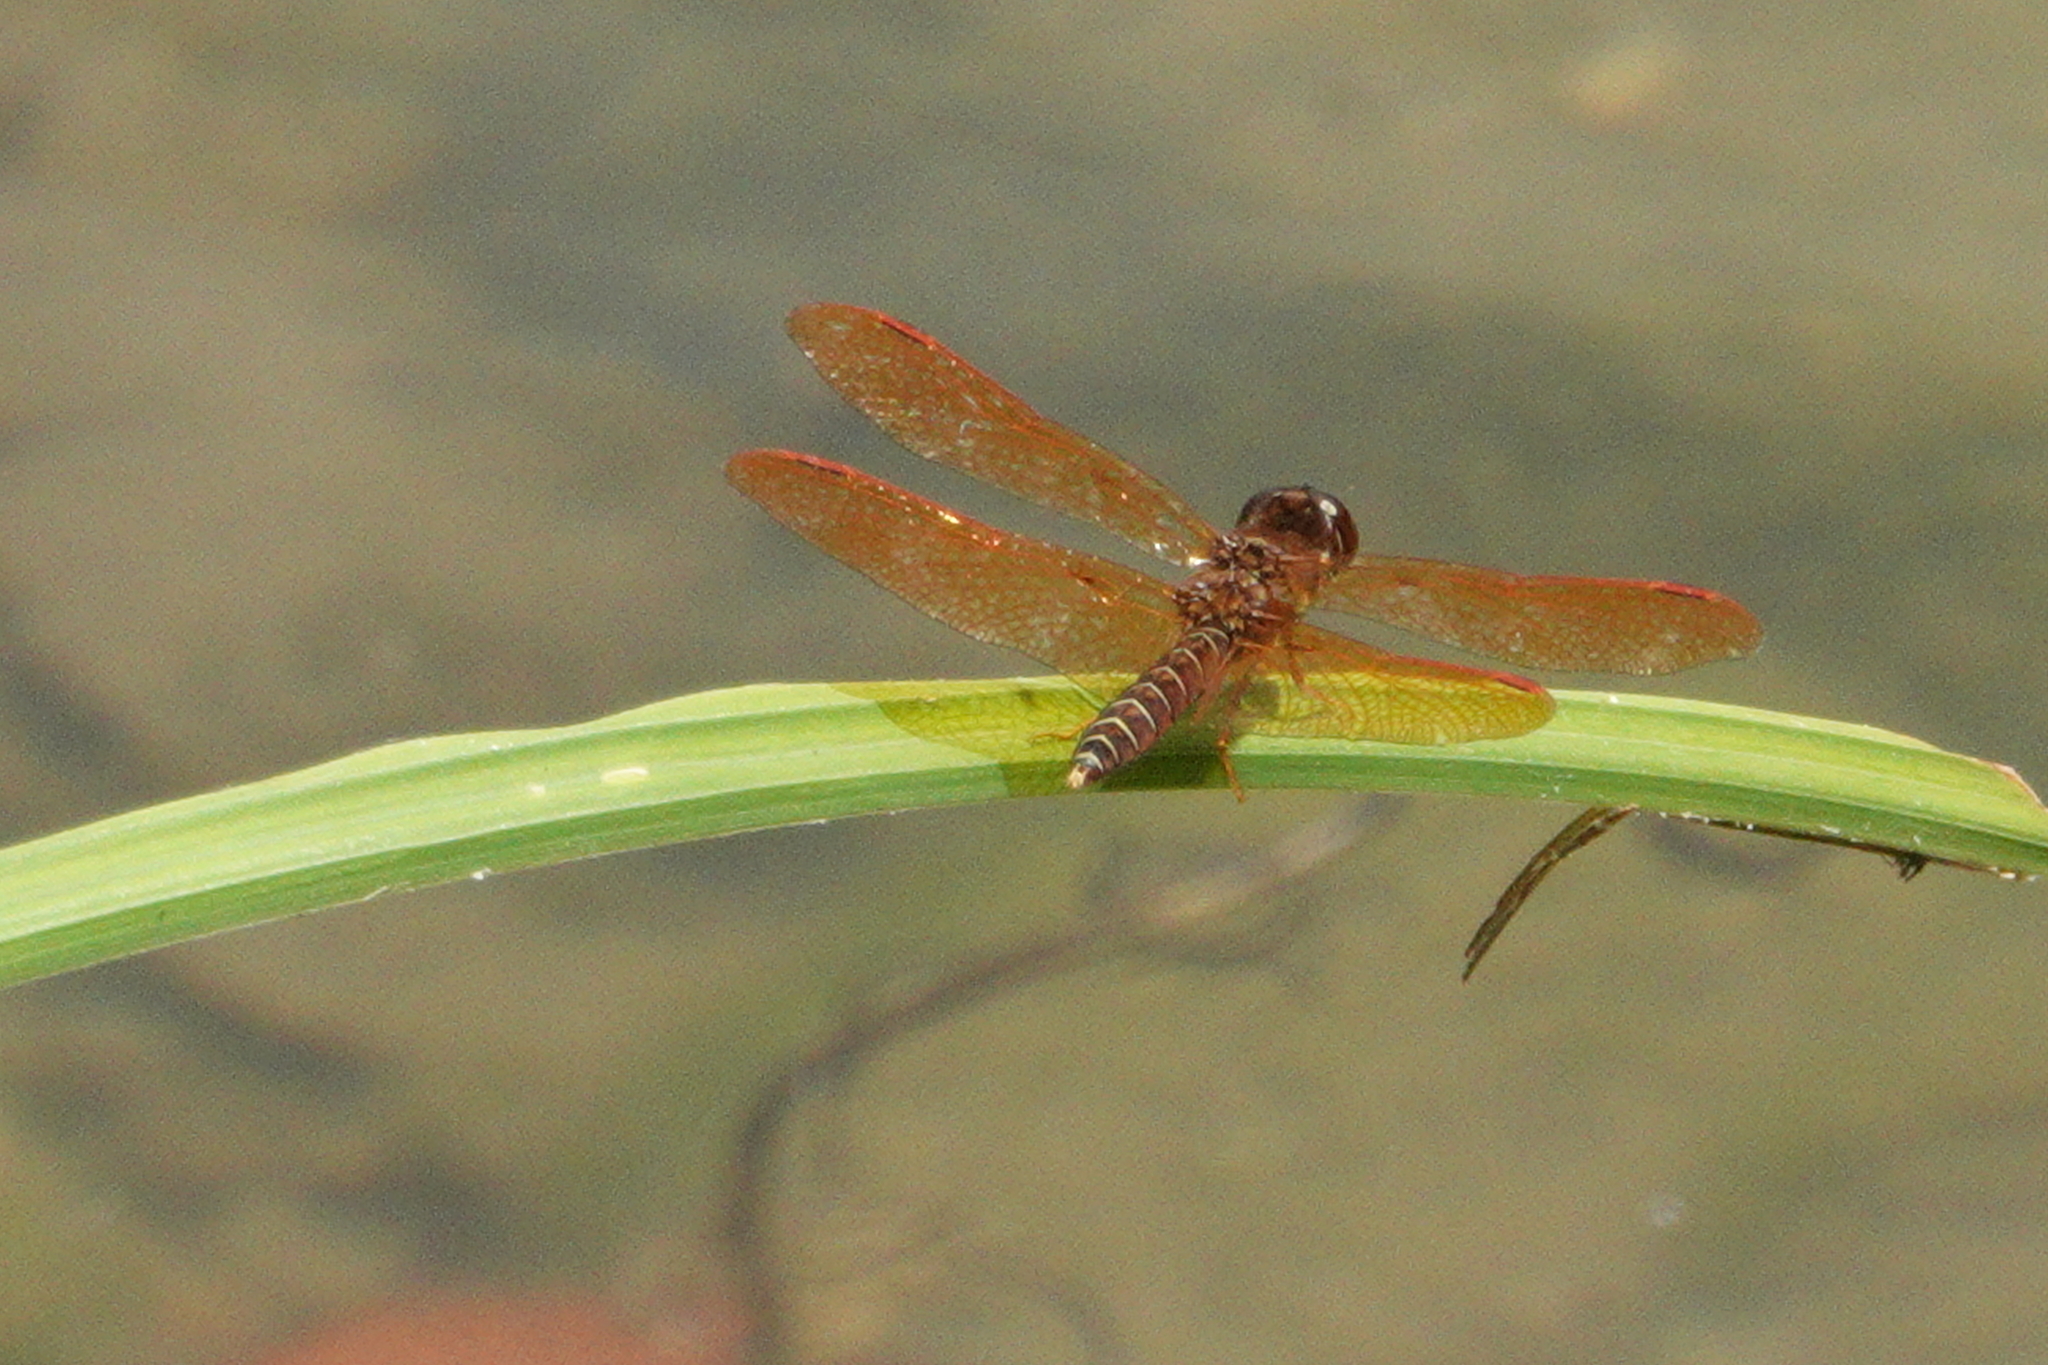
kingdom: Animalia
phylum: Arthropoda
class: Insecta
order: Odonata
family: Libellulidae
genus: Perithemis
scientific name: Perithemis tenera
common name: Eastern amberwing
